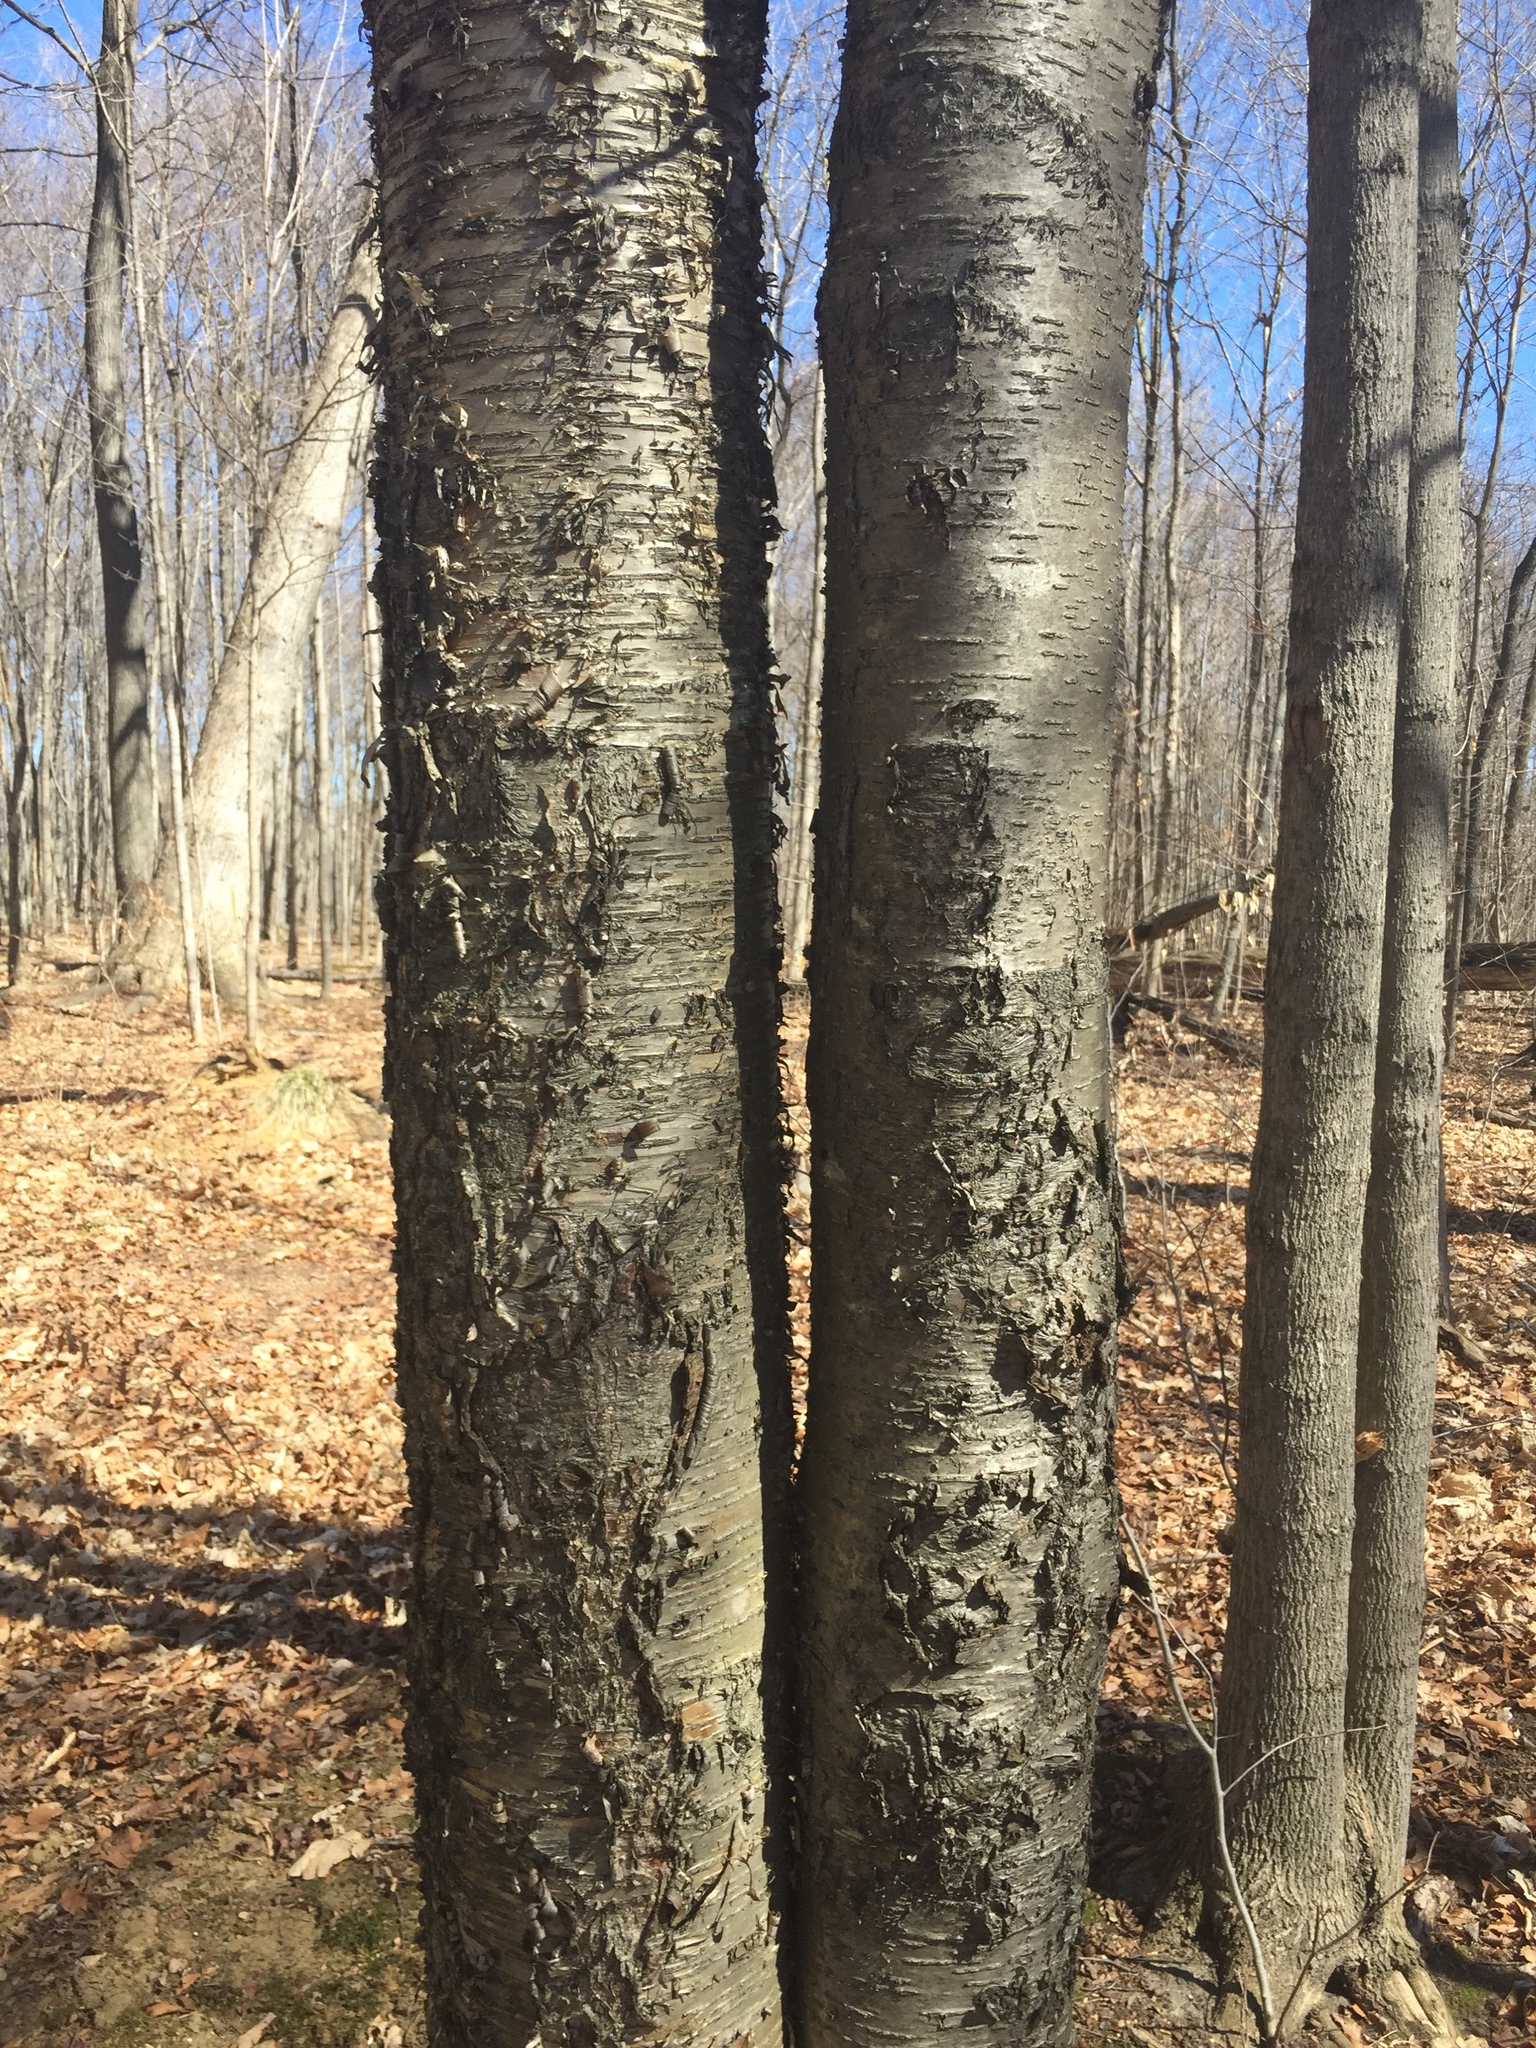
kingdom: Plantae
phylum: Tracheophyta
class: Magnoliopsida
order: Fagales
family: Betulaceae
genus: Betula
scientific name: Betula alleghaniensis
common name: Yellow birch
